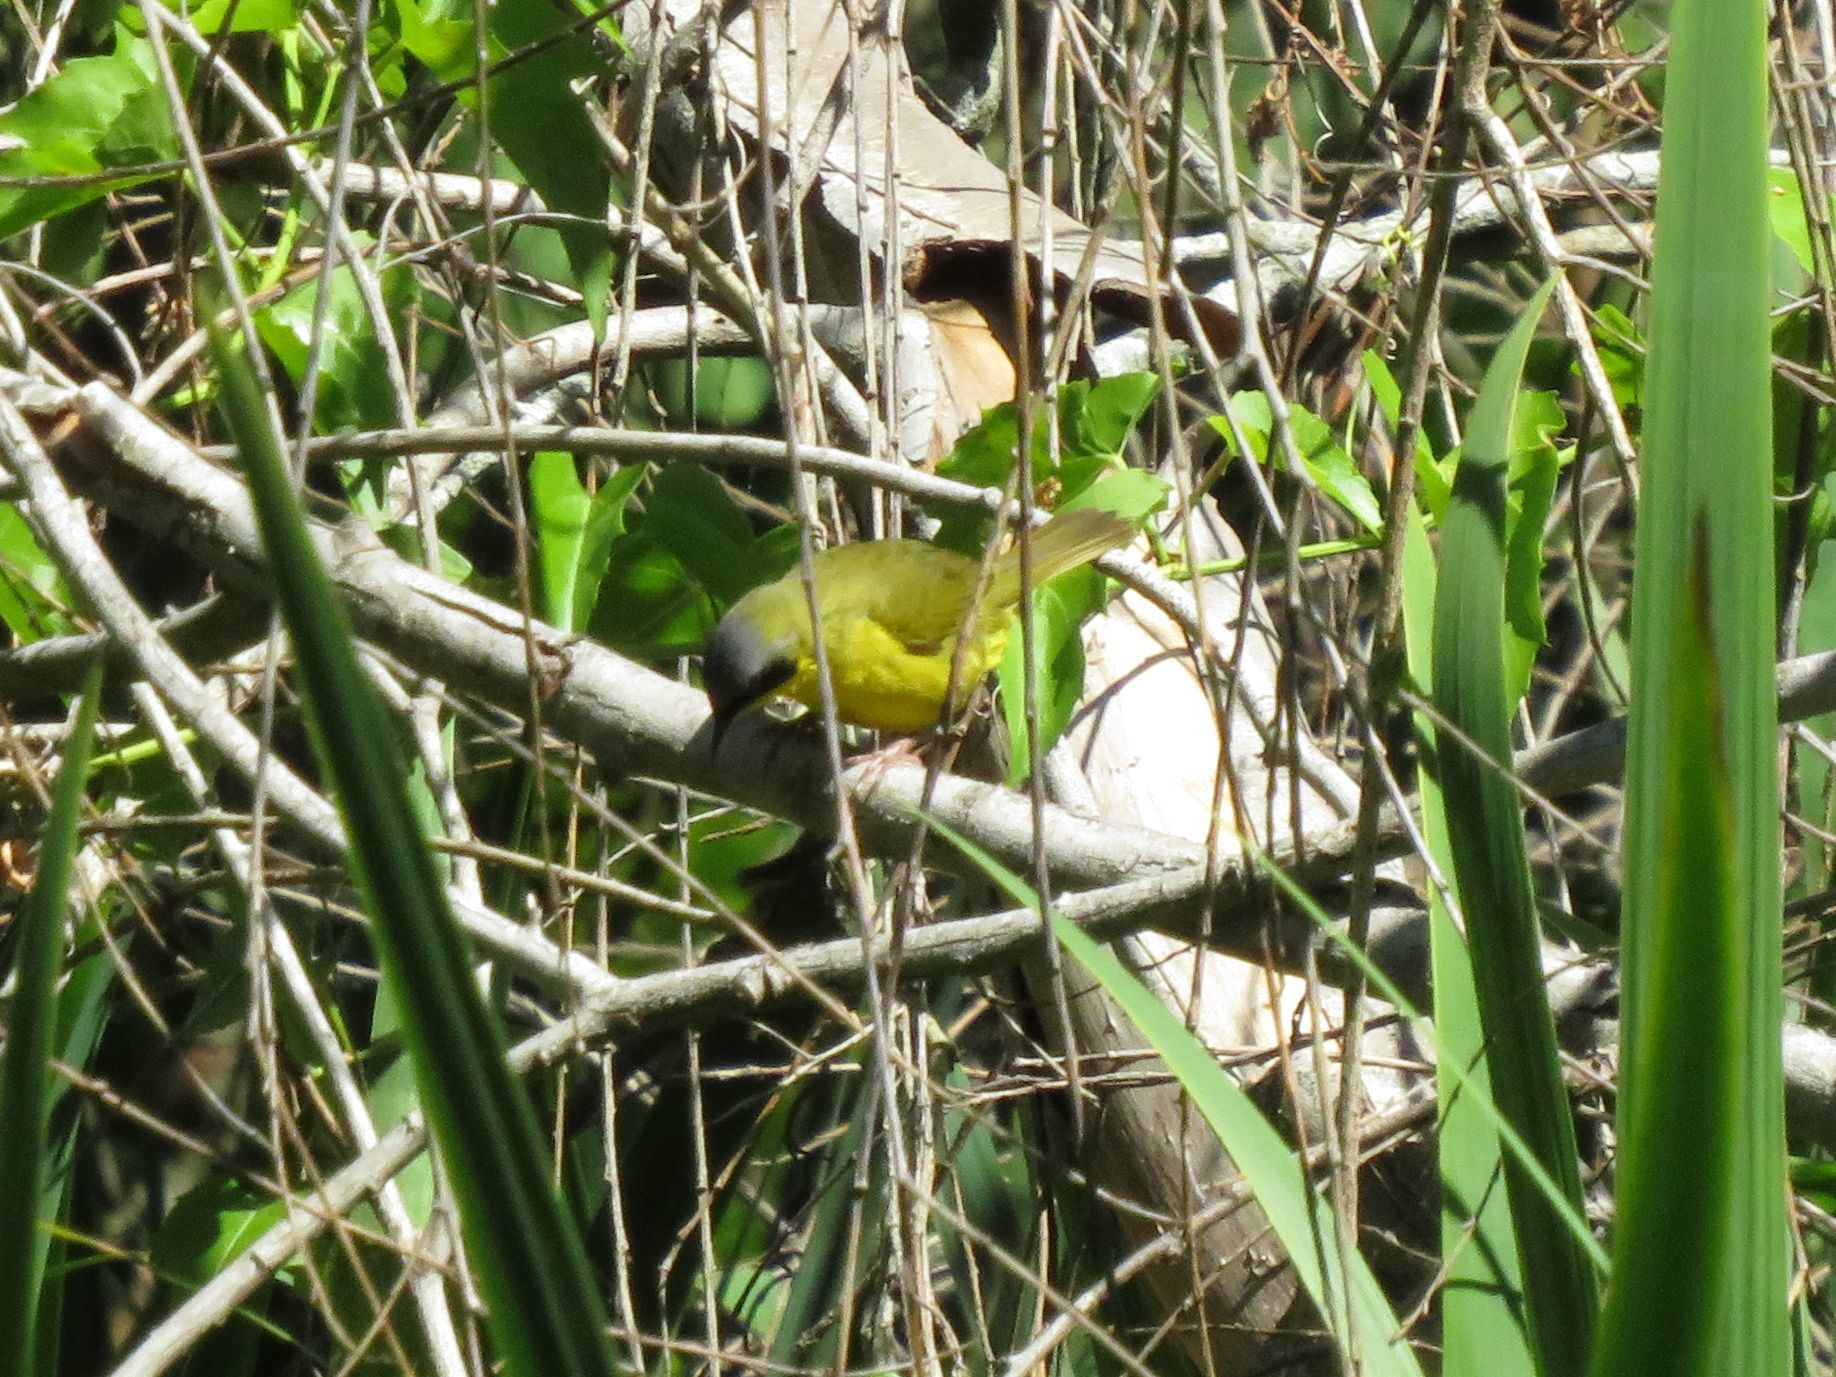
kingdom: Animalia
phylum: Chordata
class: Aves
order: Passeriformes
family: Parulidae
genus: Geothlypis
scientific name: Geothlypis velata
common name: Southern yellowthroat
